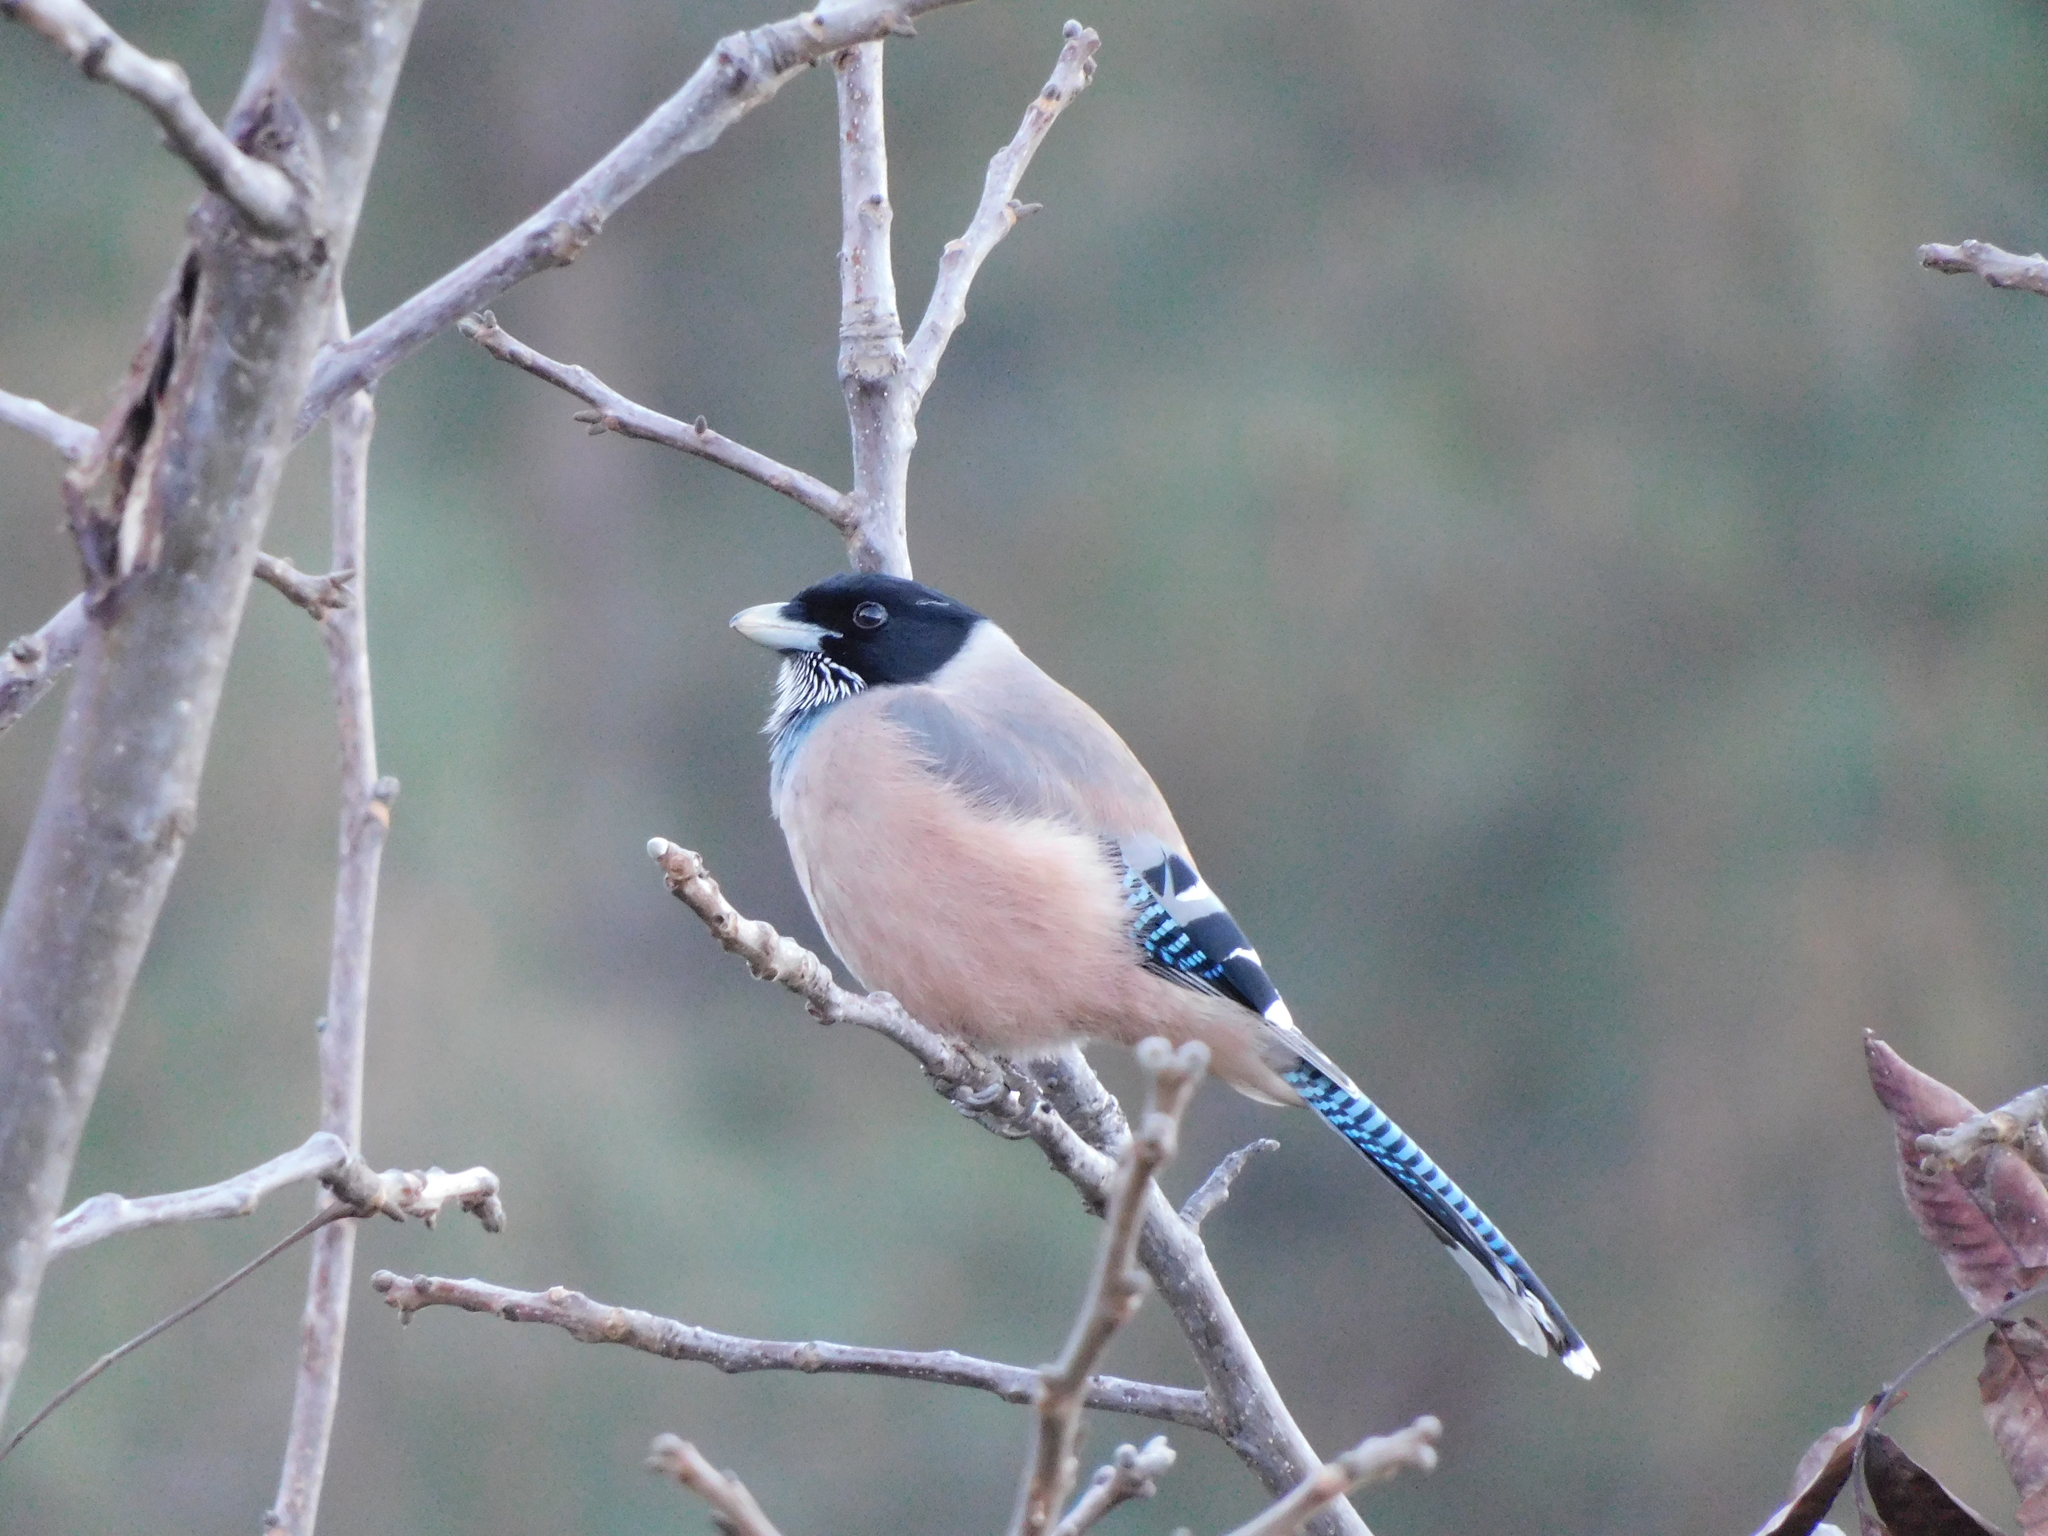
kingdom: Animalia
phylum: Chordata
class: Aves
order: Passeriformes
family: Corvidae
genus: Garrulus
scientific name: Garrulus lanceolatus
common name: Black-headed jay
